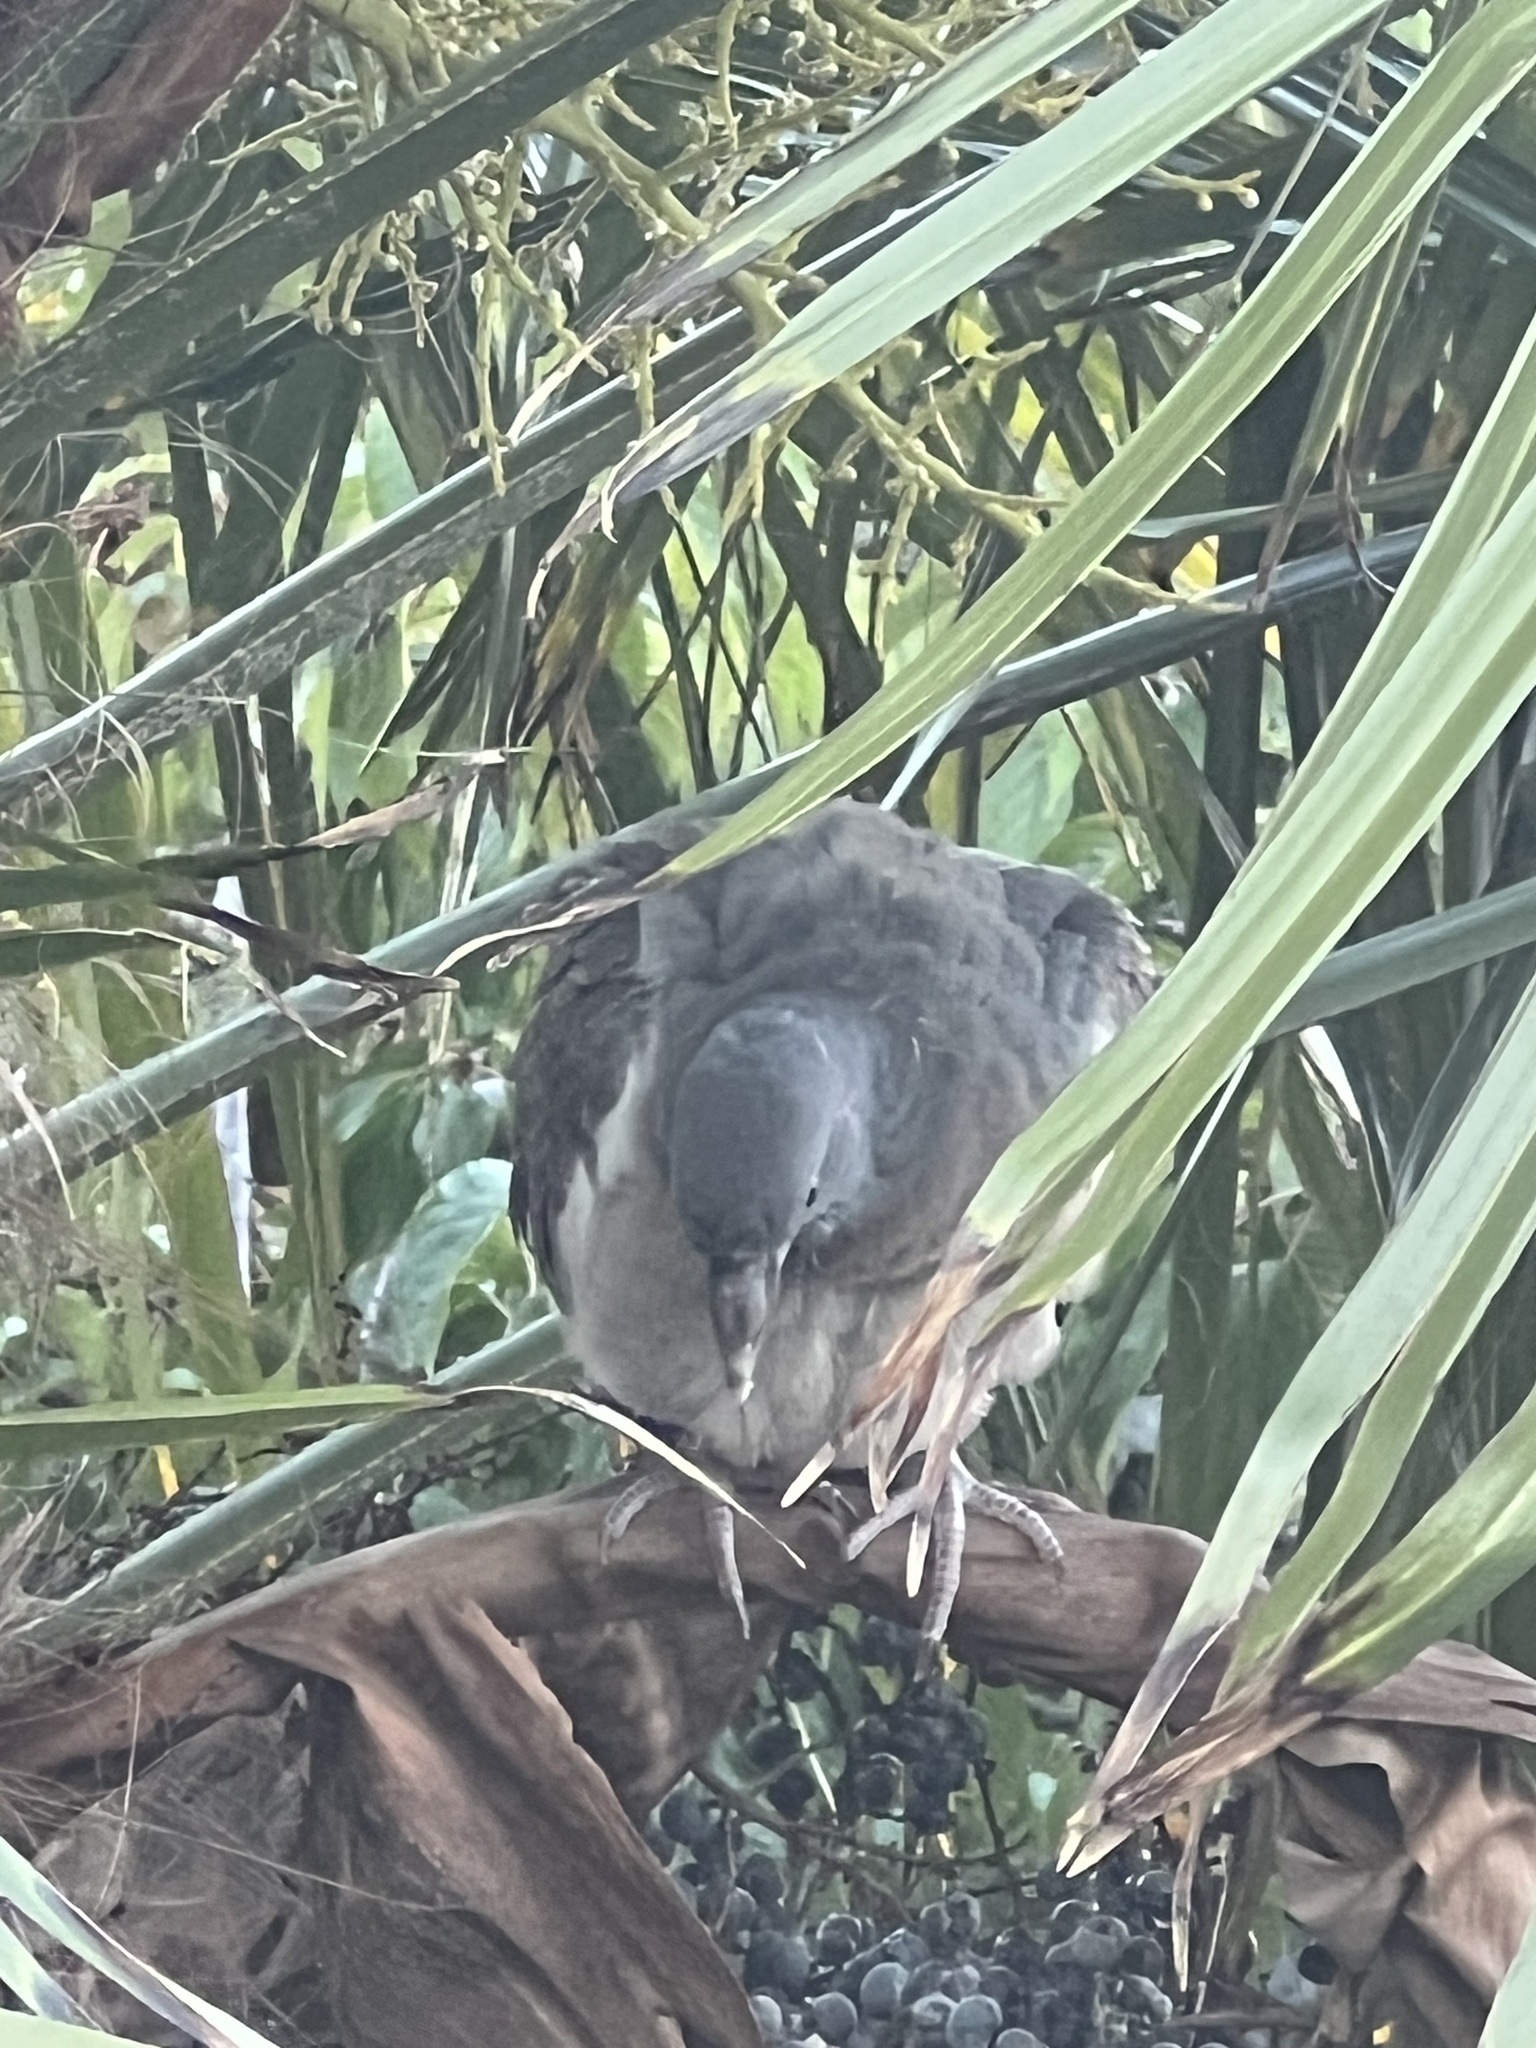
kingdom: Animalia
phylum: Chordata
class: Aves
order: Columbiformes
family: Columbidae
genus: Columba
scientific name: Columba palumbus
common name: Common wood pigeon
